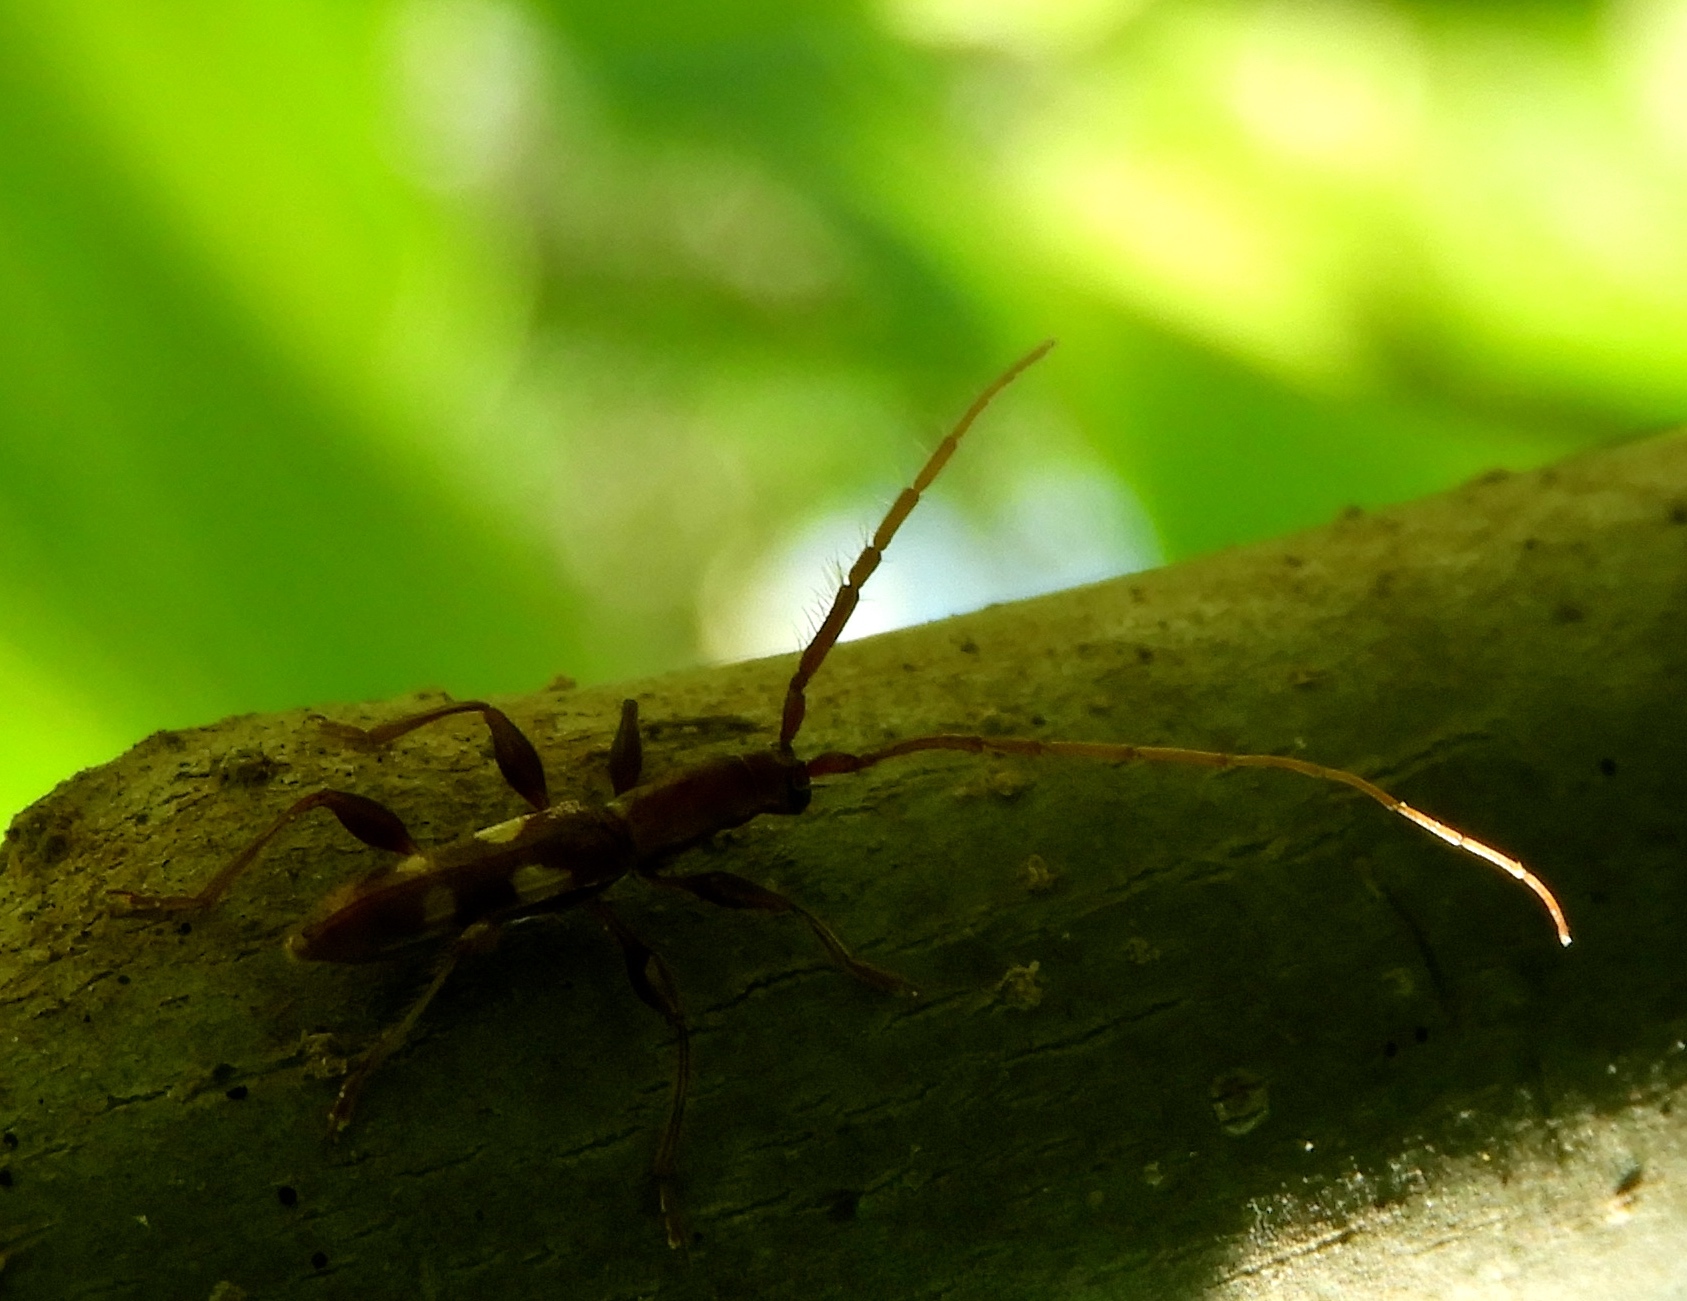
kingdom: Animalia
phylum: Arthropoda
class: Insecta
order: Coleoptera
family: Cerambycidae
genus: Neocompsa
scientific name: Neocompsa macroscina
